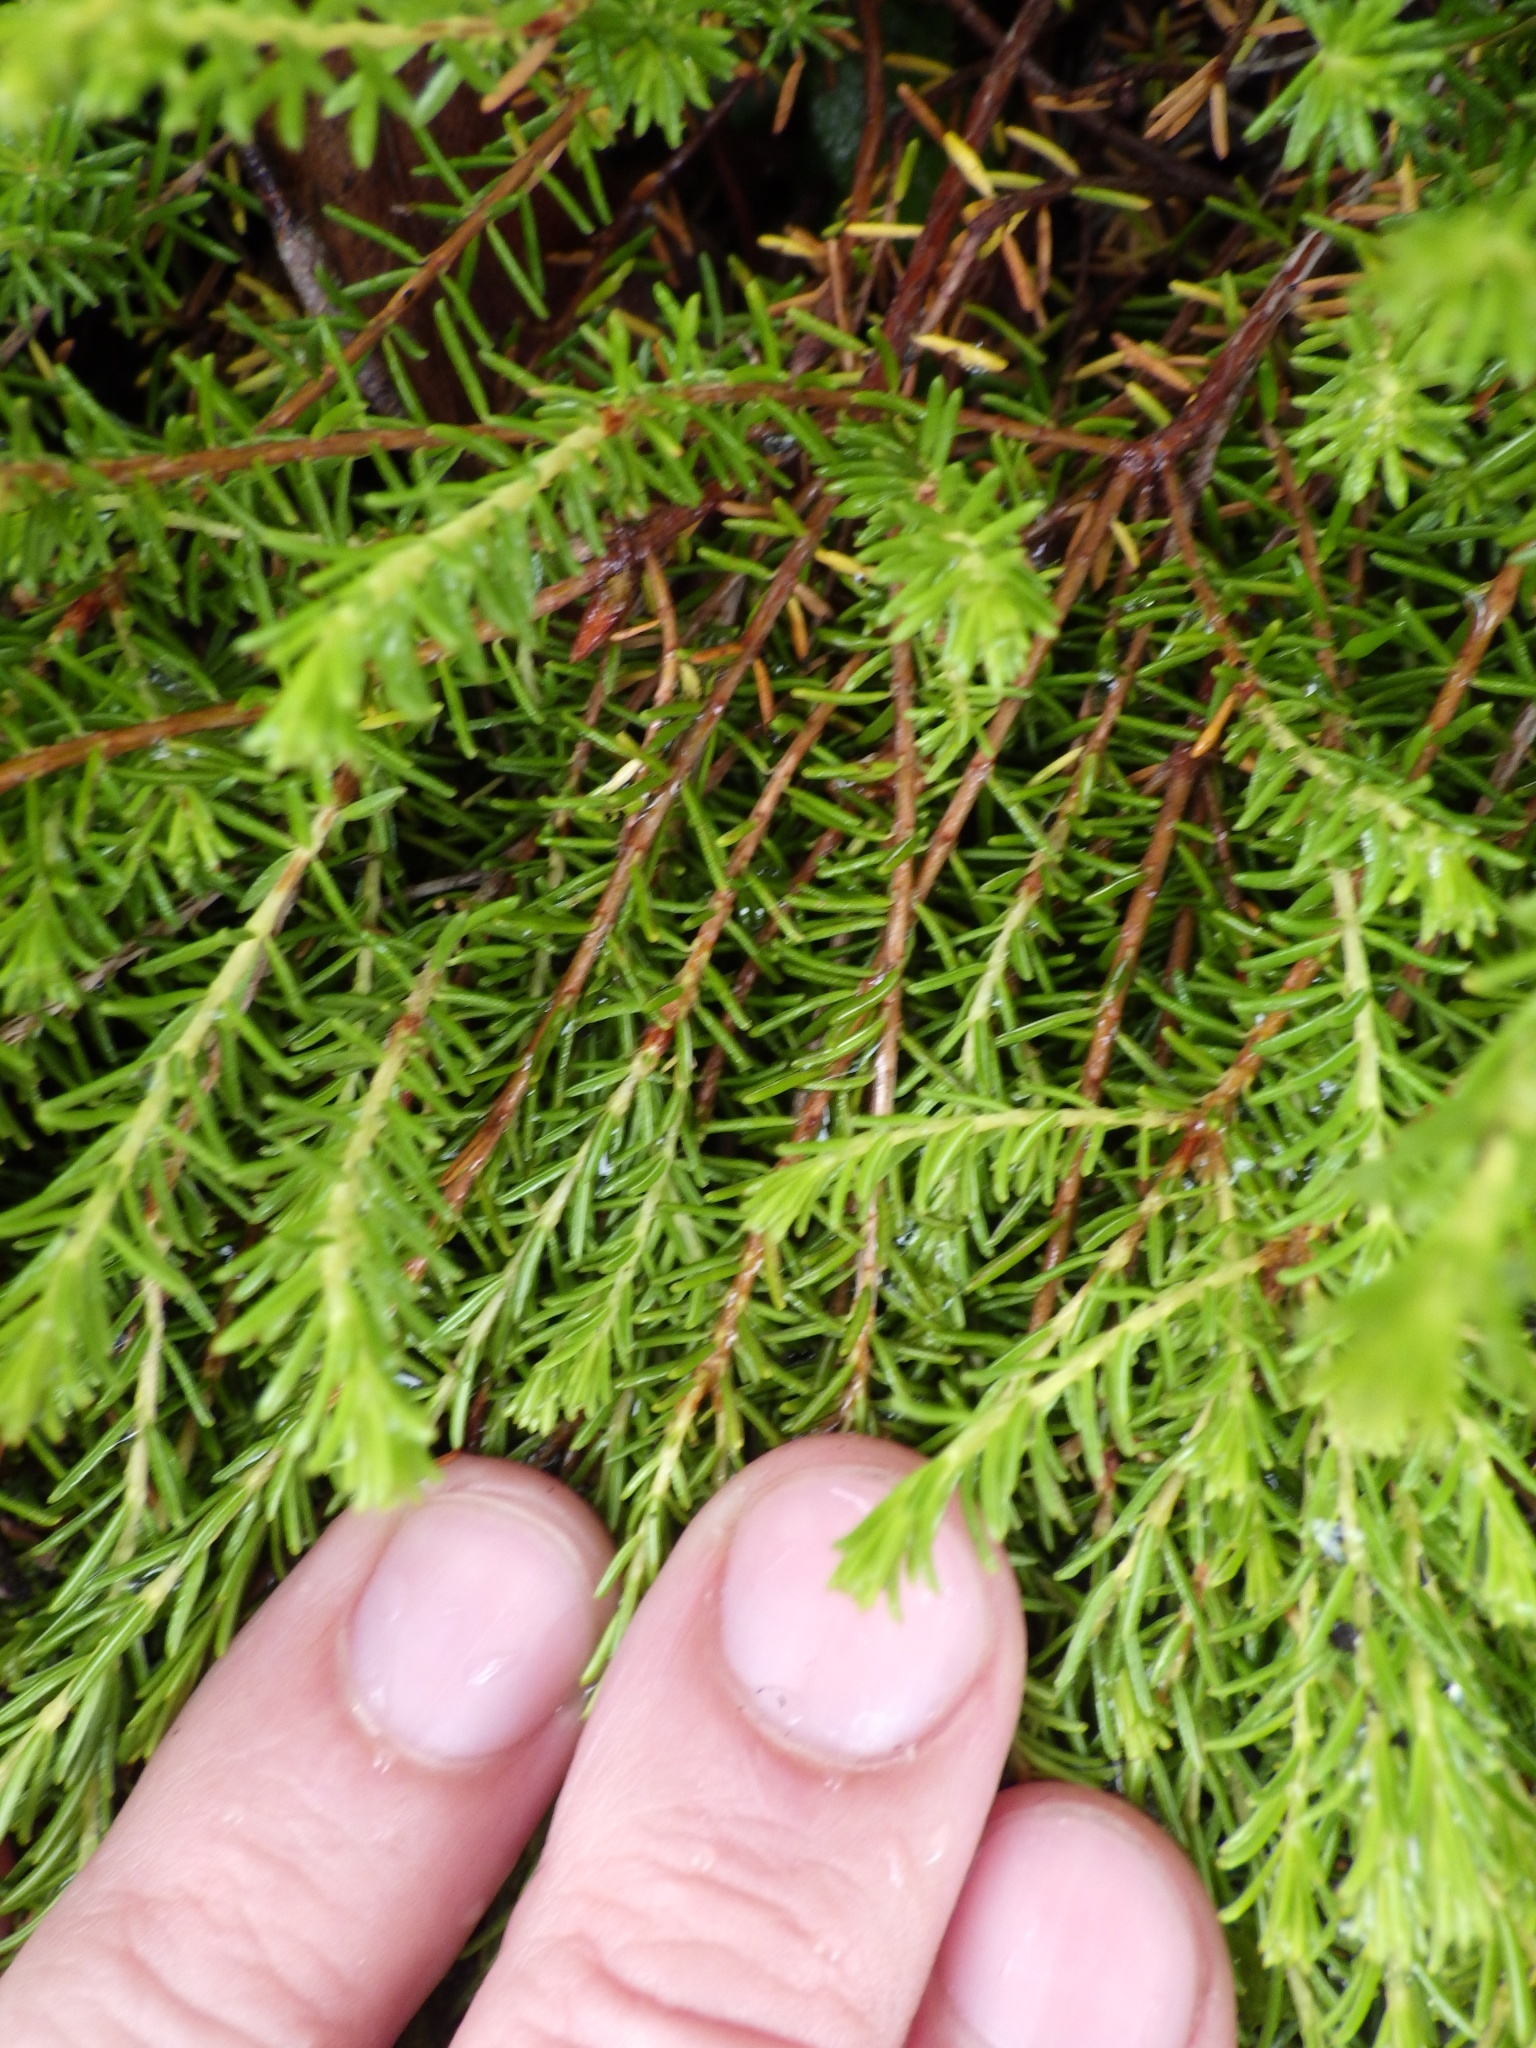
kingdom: Plantae
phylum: Tracheophyta
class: Magnoliopsida
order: Ericales
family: Ericaceae
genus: Corema
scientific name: Corema conradii
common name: Broom-crowberry
